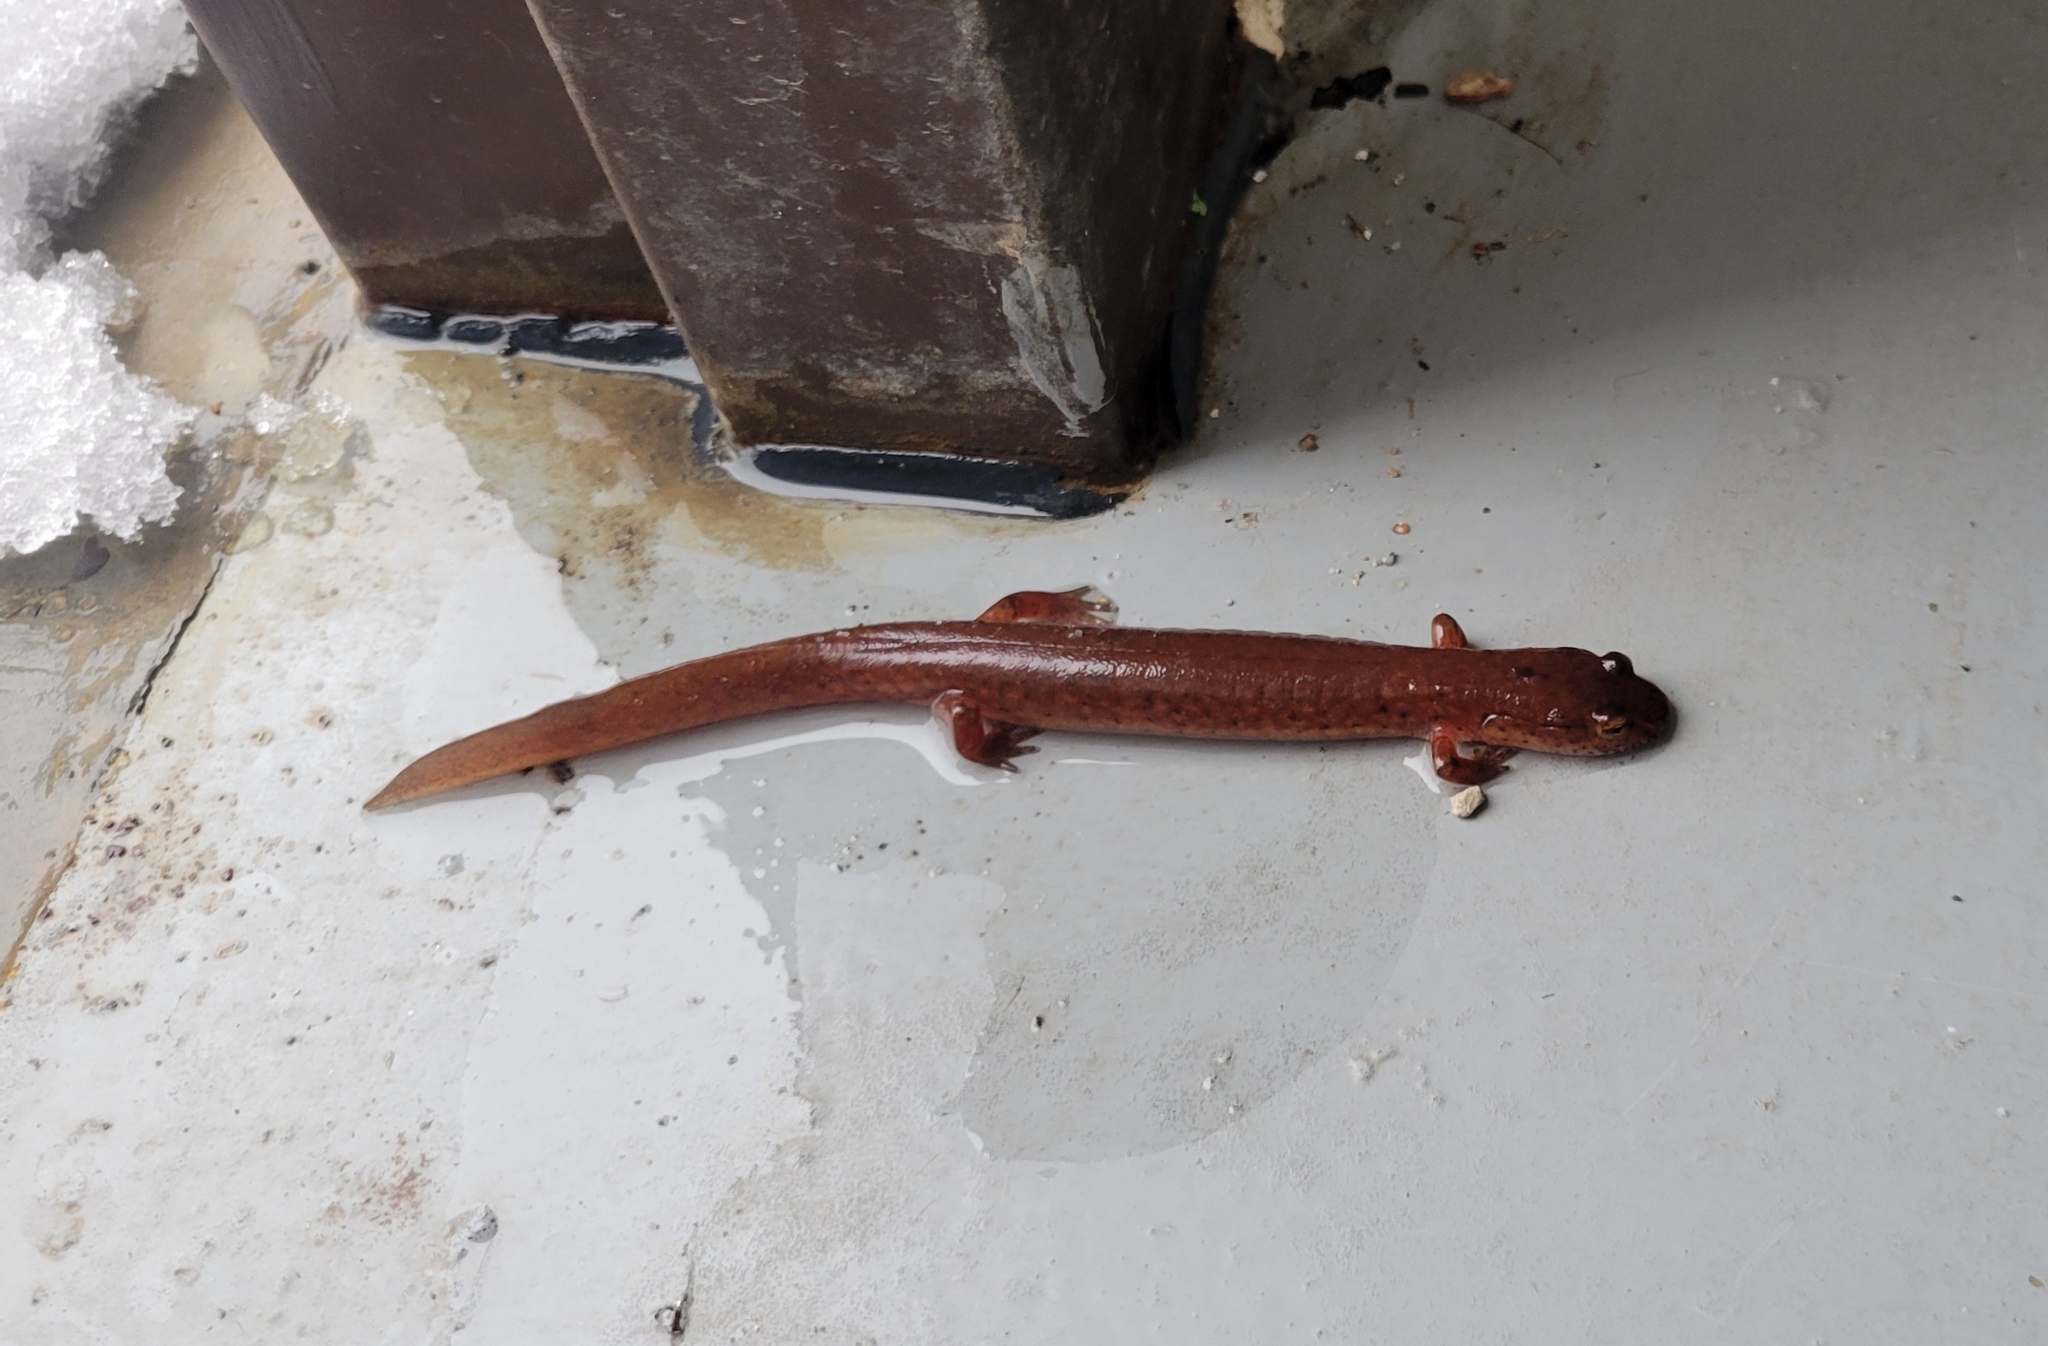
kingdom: Animalia
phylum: Chordata
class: Amphibia
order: Caudata
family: Plethodontidae
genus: Gyrinophilus
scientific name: Gyrinophilus porphyriticus
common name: Spring salamander
